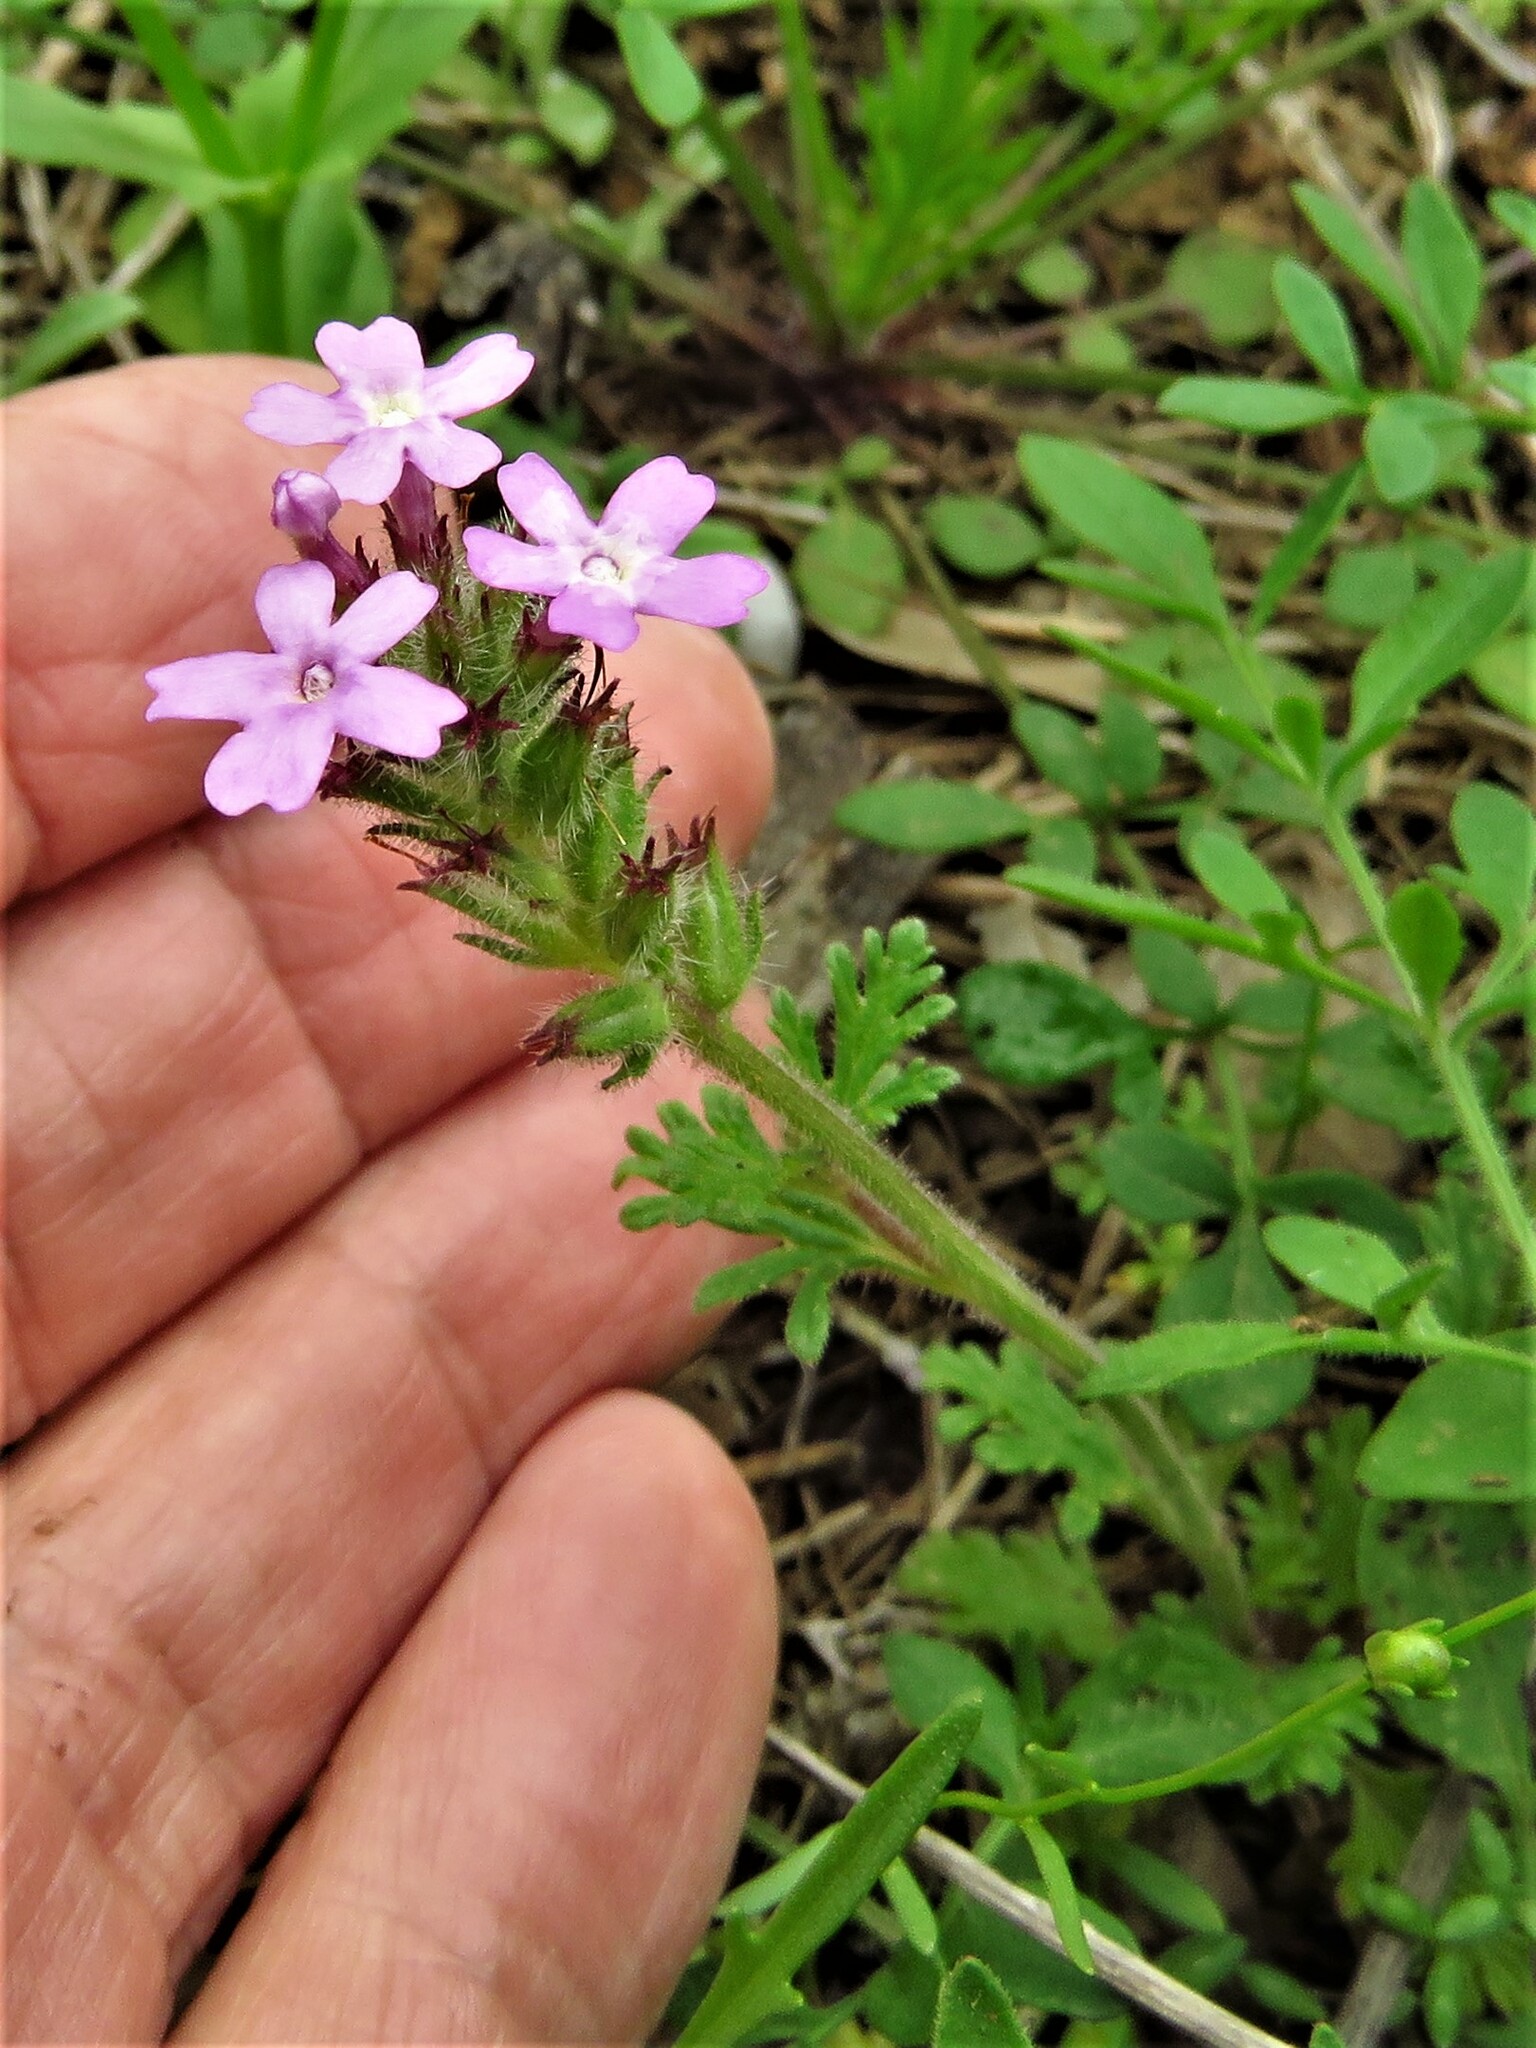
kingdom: Plantae
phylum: Tracheophyta
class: Magnoliopsida
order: Lamiales
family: Verbenaceae
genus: Verbena
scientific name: Verbena pumila
